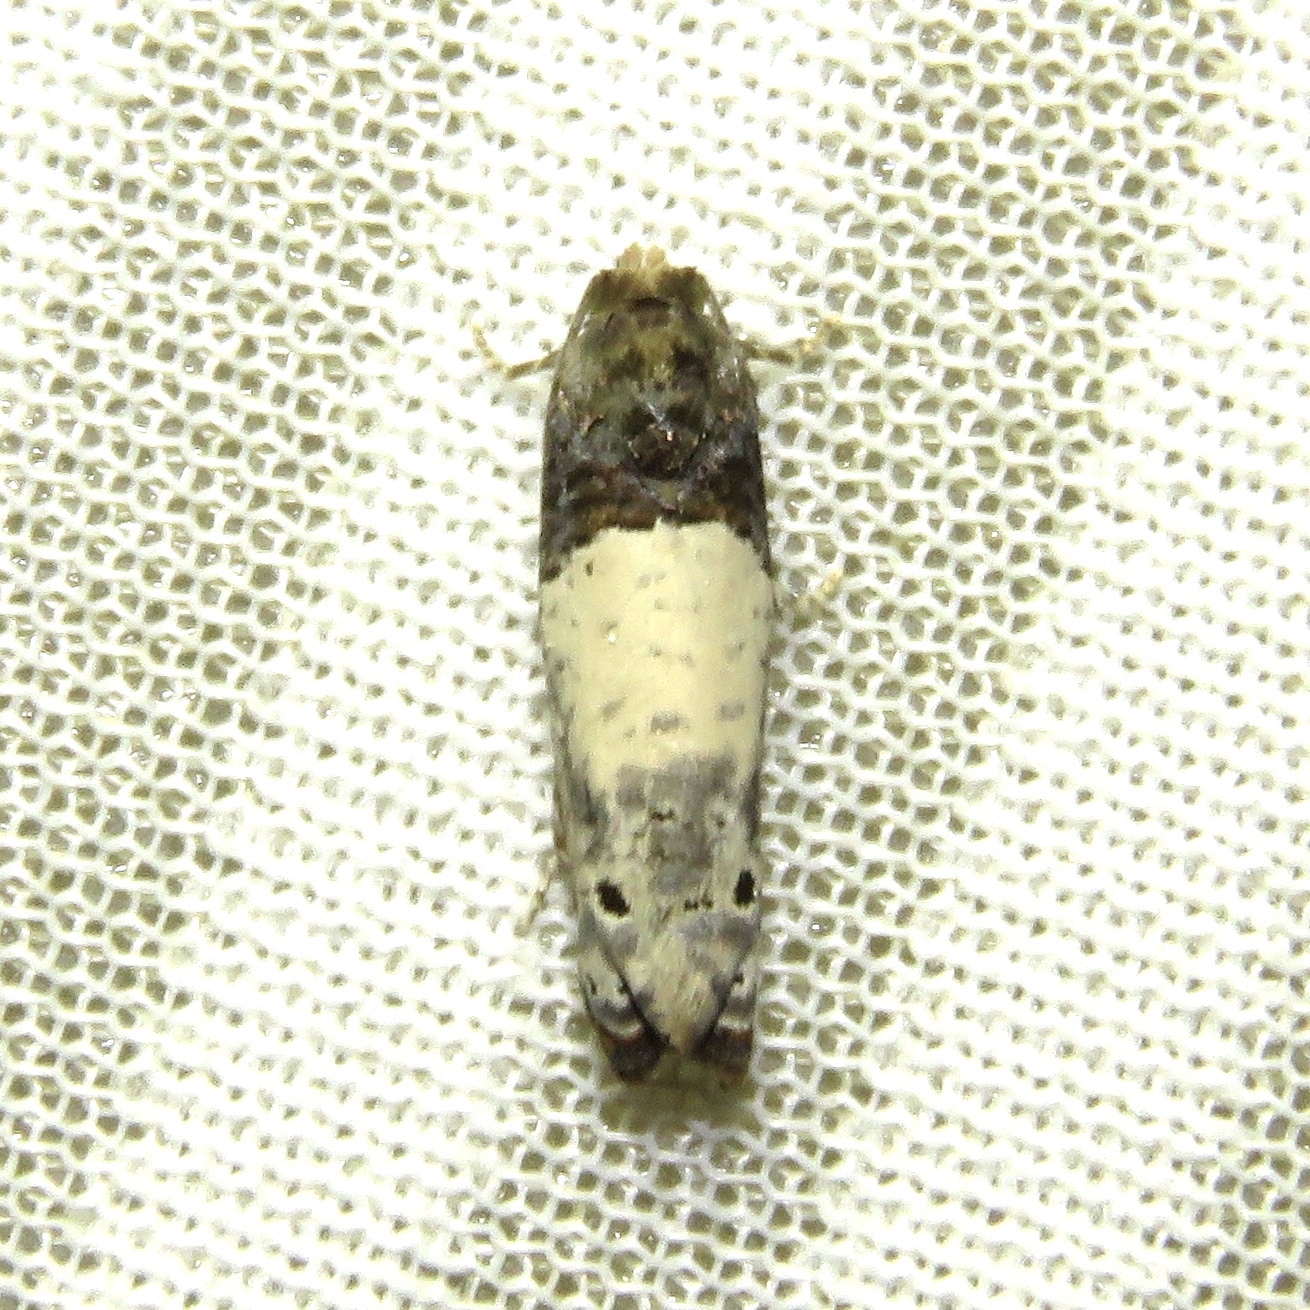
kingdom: Animalia
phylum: Arthropoda
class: Insecta
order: Lepidoptera
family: Tortricidae
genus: Epiblema
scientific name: Epiblema scudderiana
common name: Goldenrod gall moth
